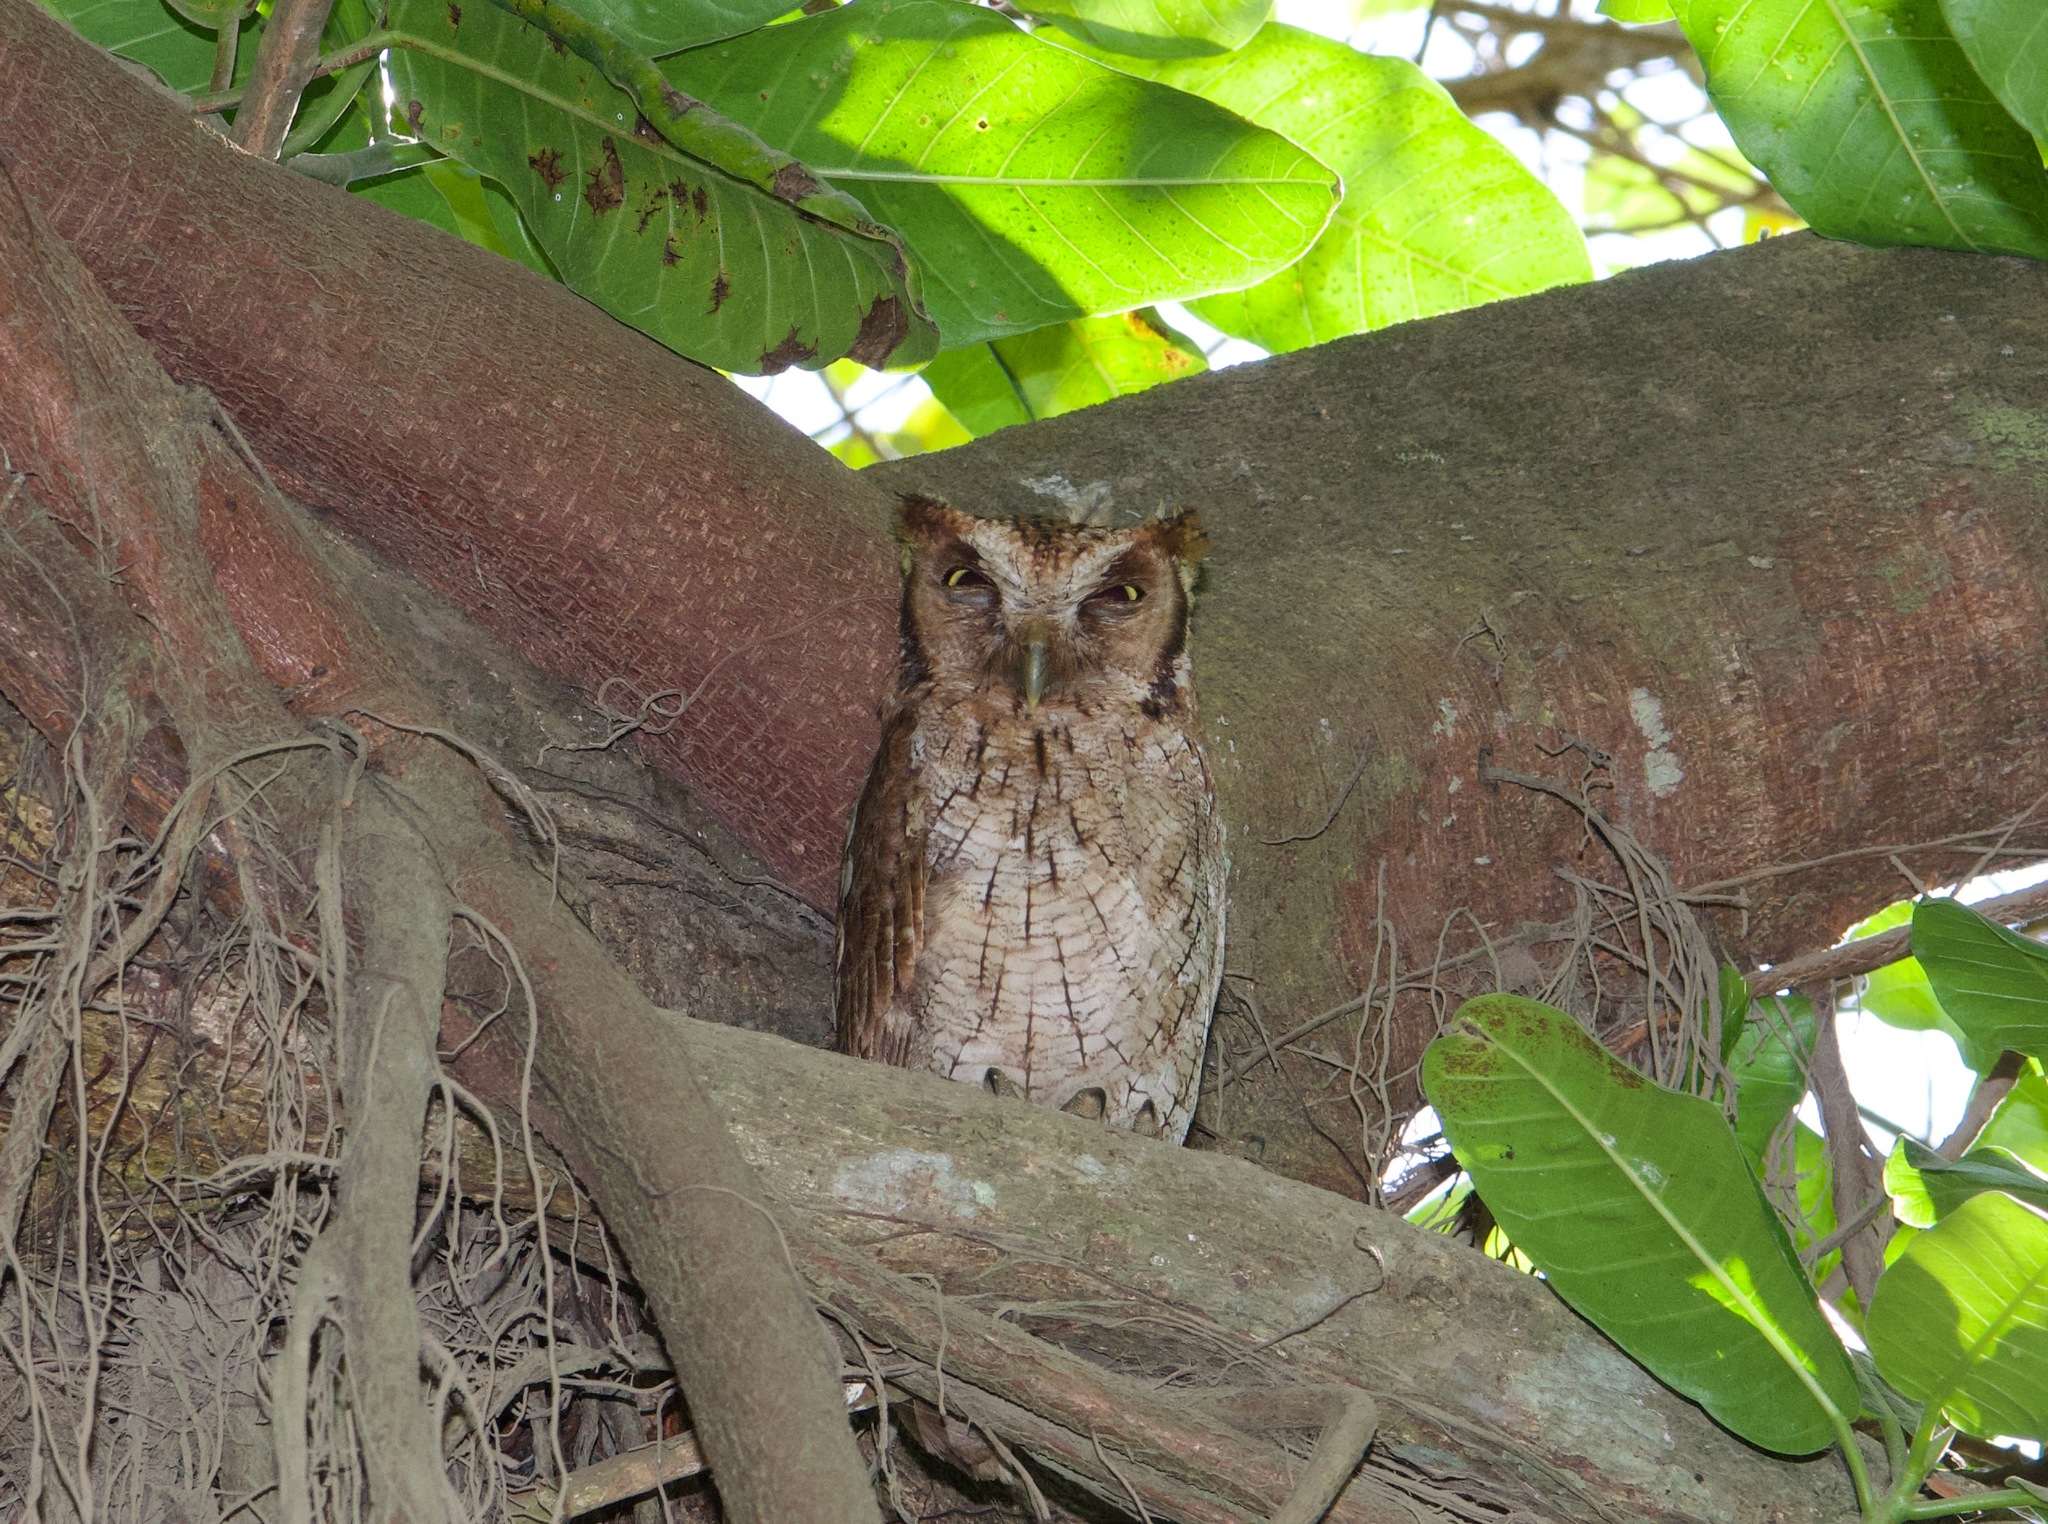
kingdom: Animalia
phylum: Chordata
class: Aves
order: Strigiformes
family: Strigidae
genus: Megascops
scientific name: Megascops choliba
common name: Tropical screech-owl
